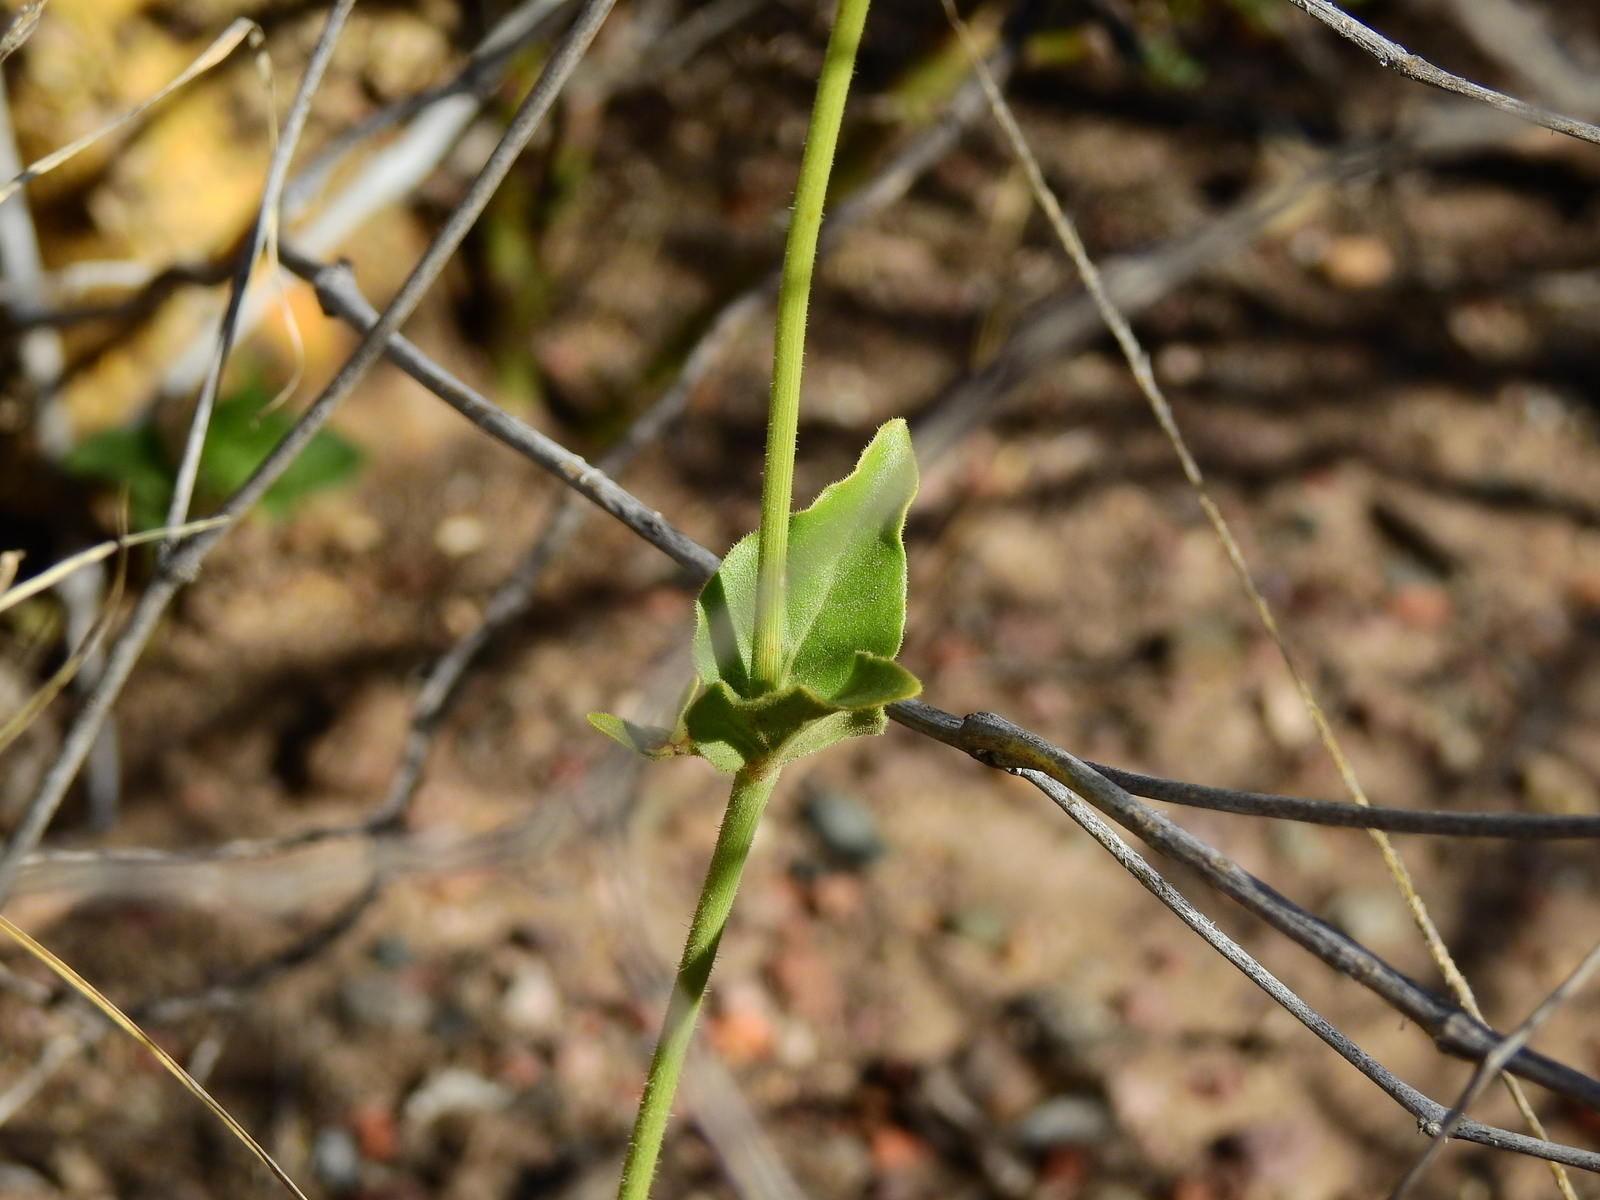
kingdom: Plantae
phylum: Tracheophyta
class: Magnoliopsida
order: Caryophyllales
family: Nyctaginaceae
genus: Mirabilis
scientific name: Mirabilis ovata
